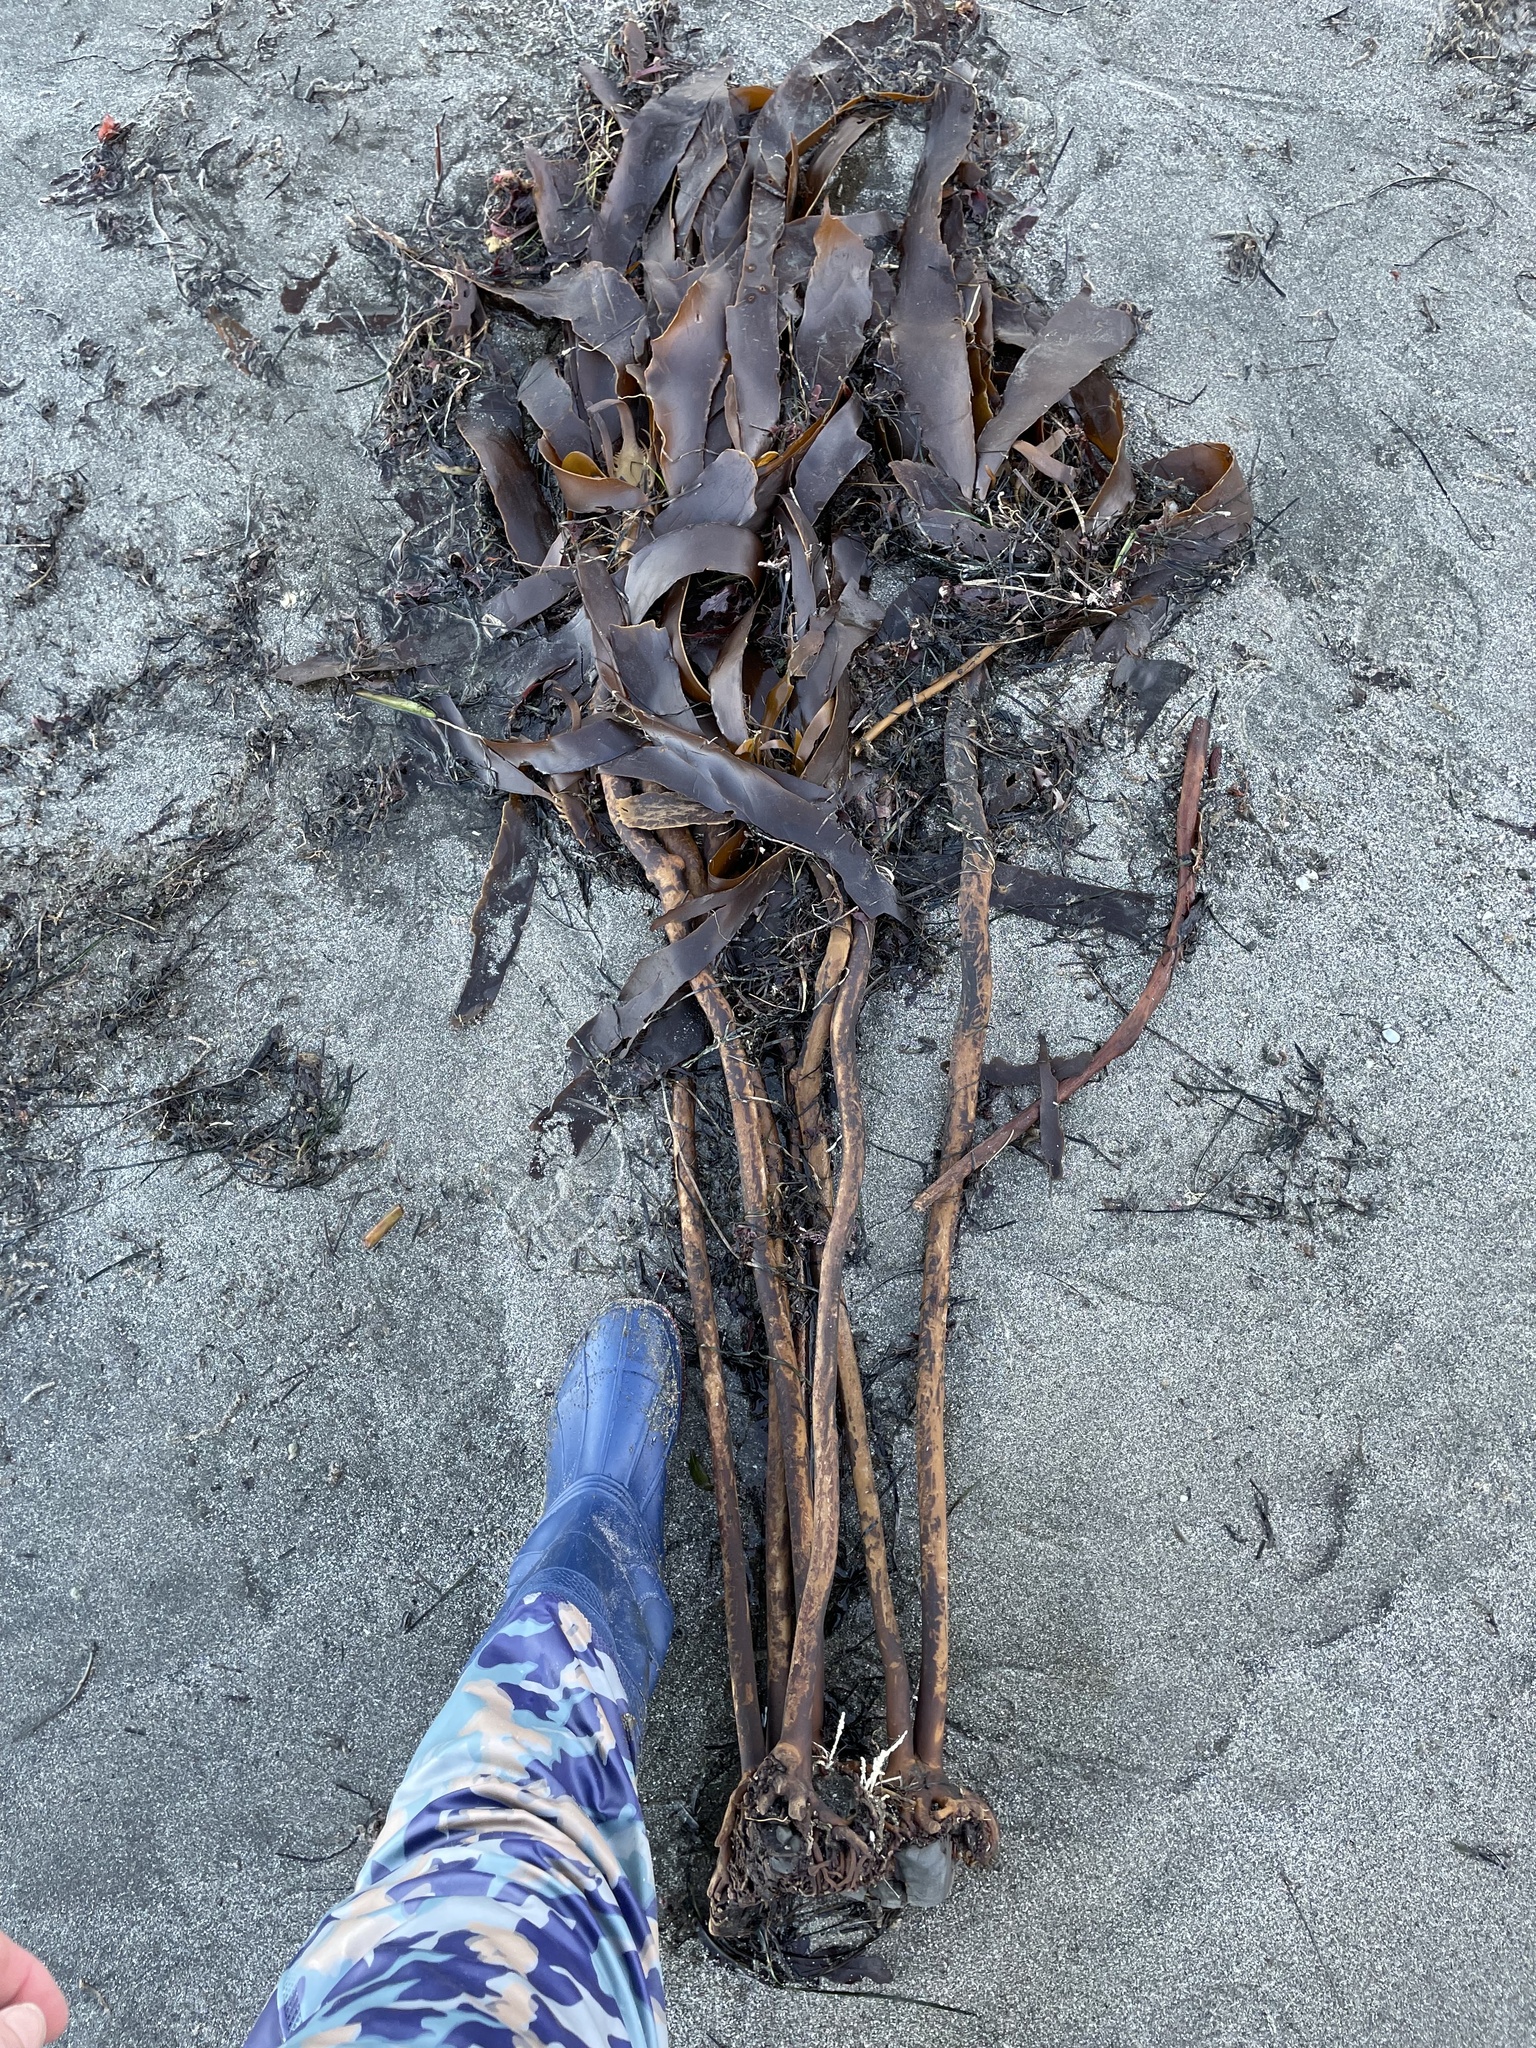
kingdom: Chromista
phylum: Ochrophyta
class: Phaeophyceae
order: Laminariales
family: Alariaceae
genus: Pterygophora
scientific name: Pterygophora californica
